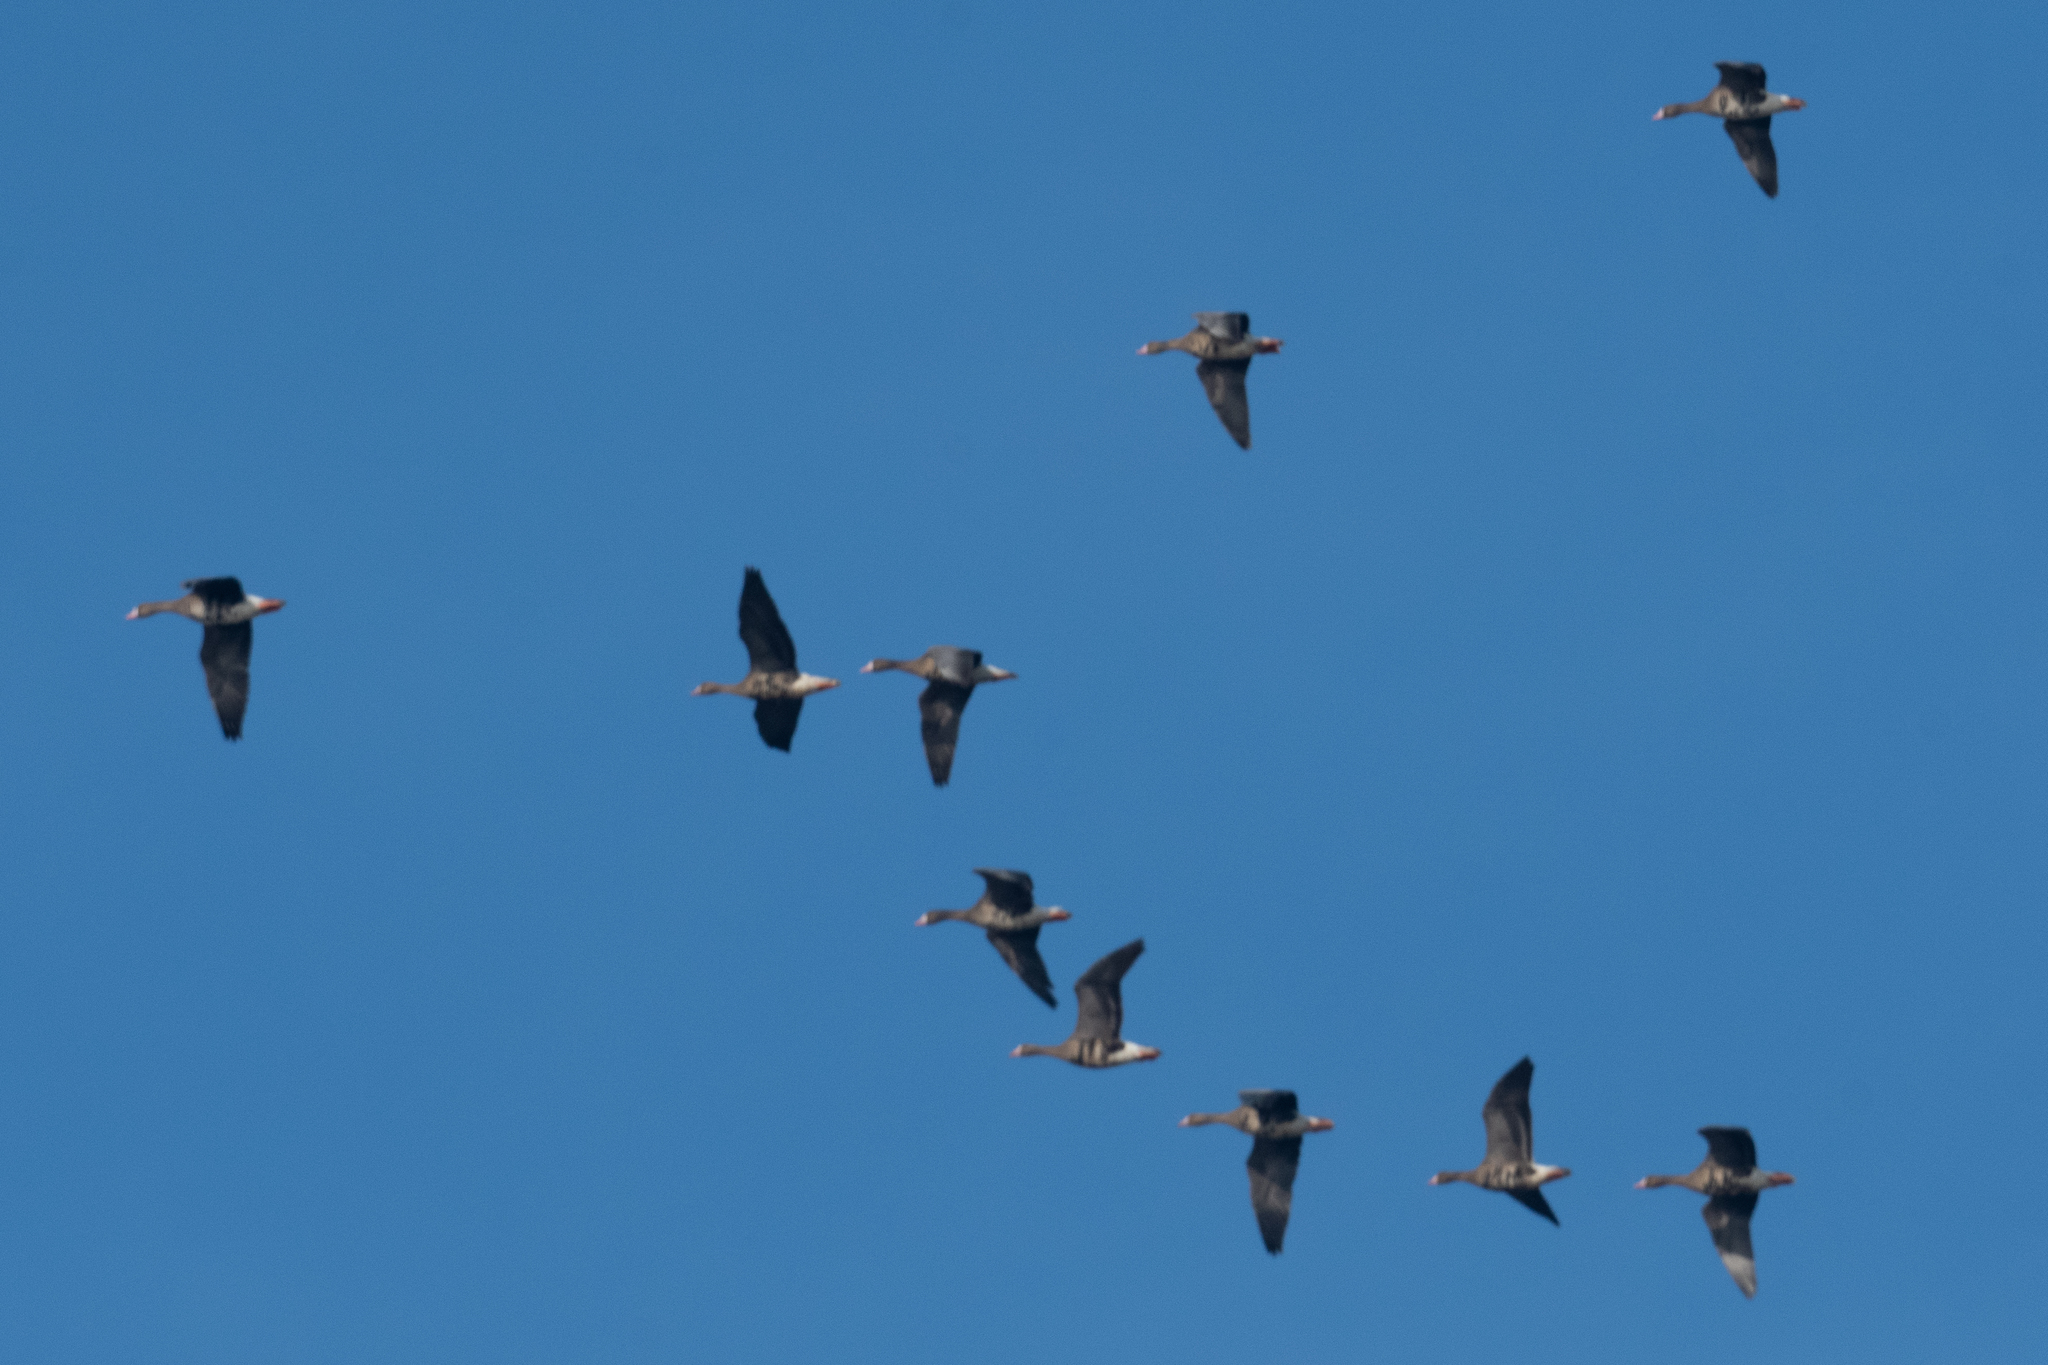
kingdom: Animalia
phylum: Chordata
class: Aves
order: Anseriformes
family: Anatidae
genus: Anser
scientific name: Anser albifrons
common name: Greater white-fronted goose
